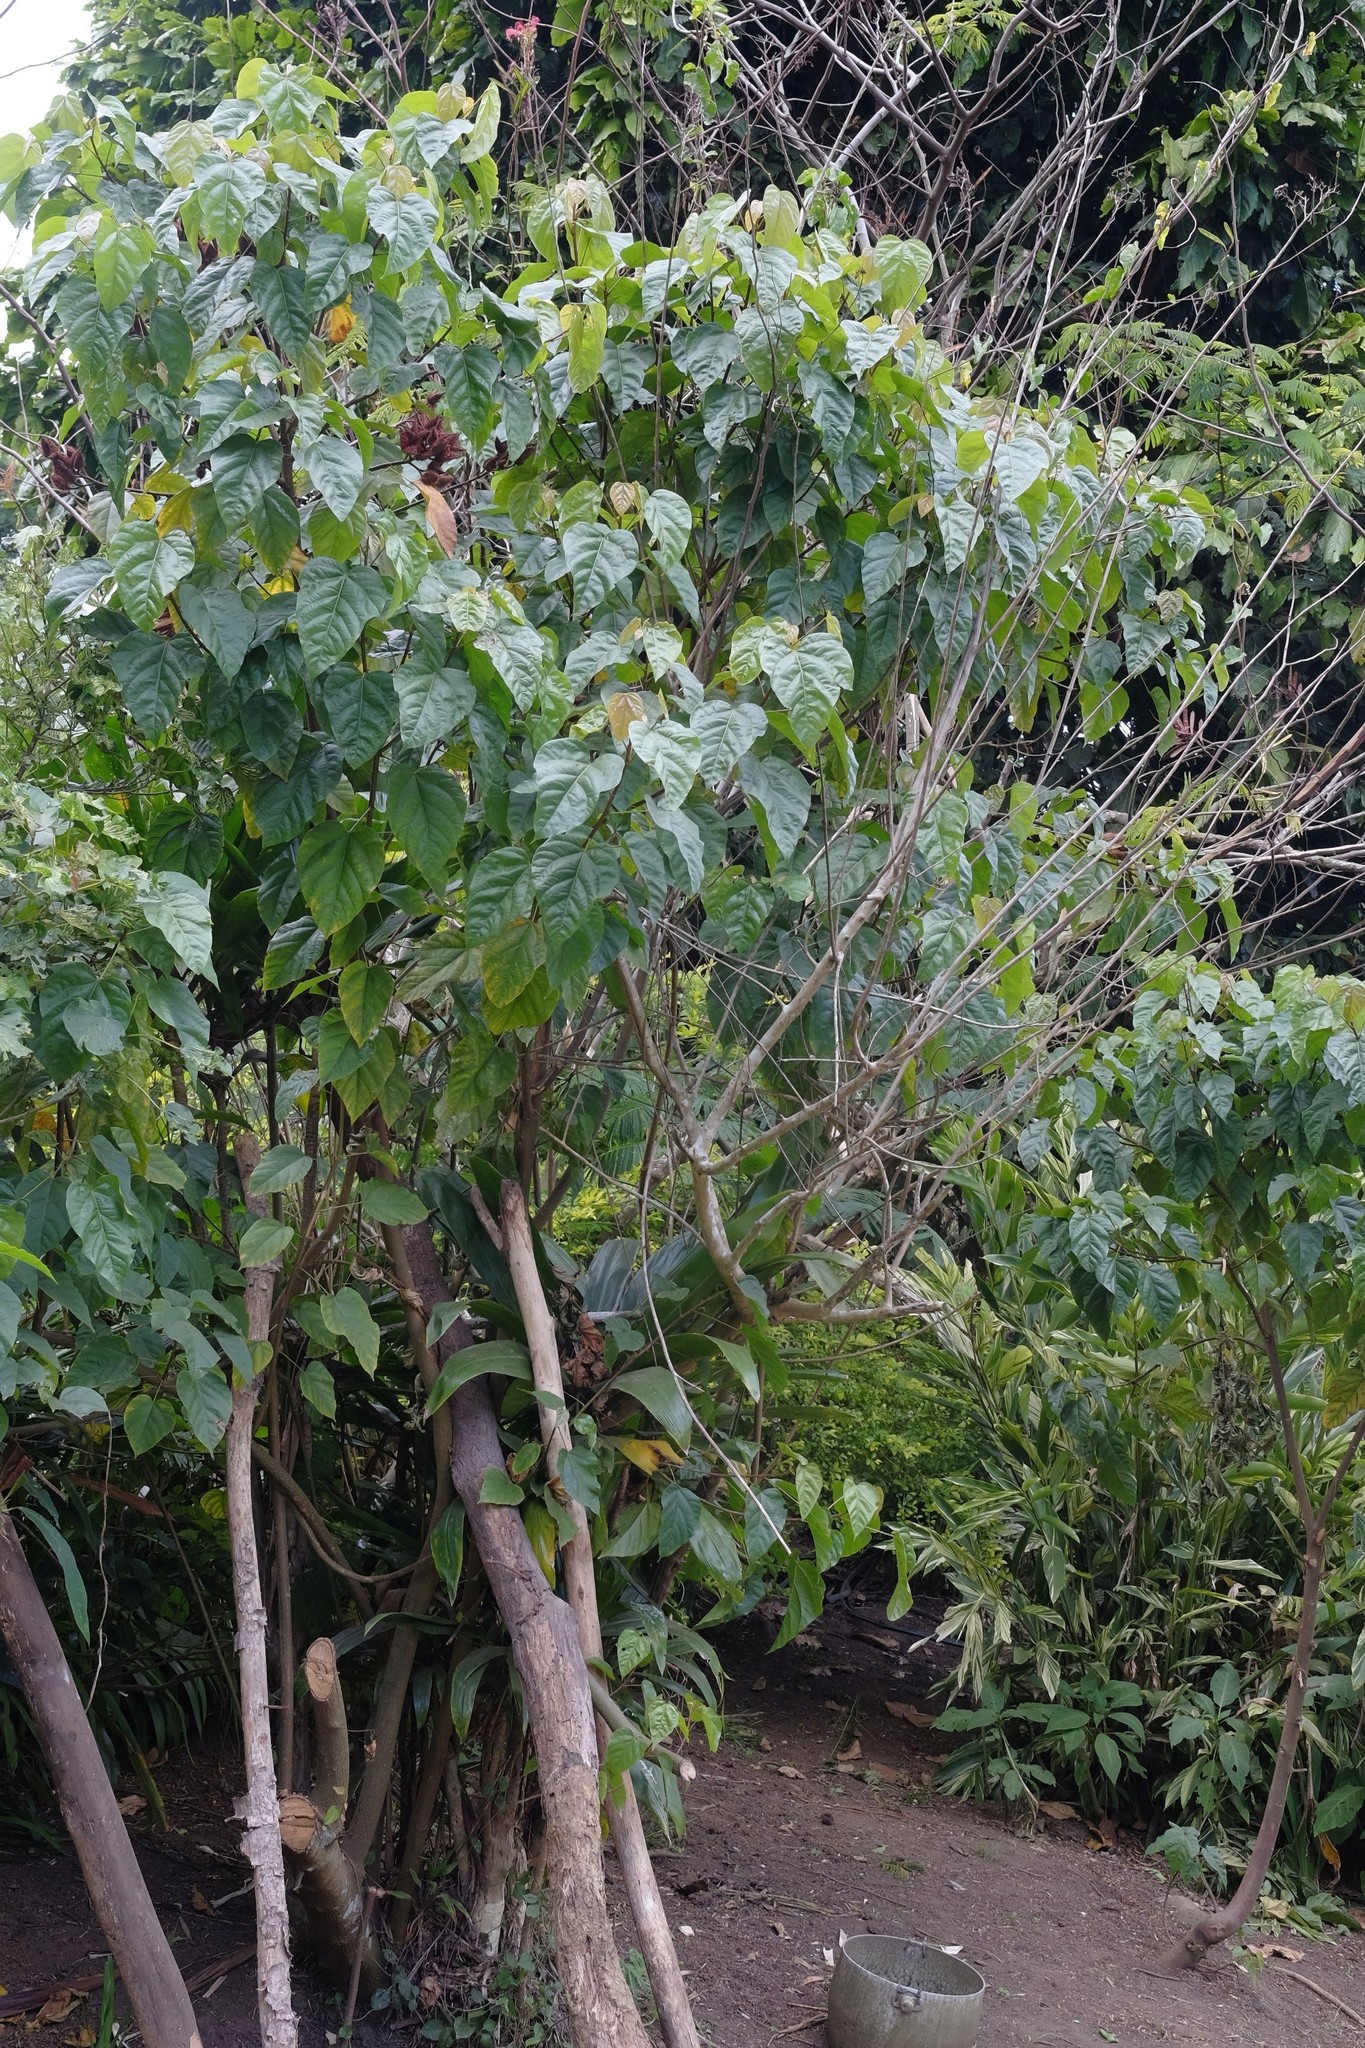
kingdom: Plantae
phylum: Tracheophyta
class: Magnoliopsida
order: Malvales
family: Bixaceae
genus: Bixa
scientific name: Bixa orellana
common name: Lipsticktree
